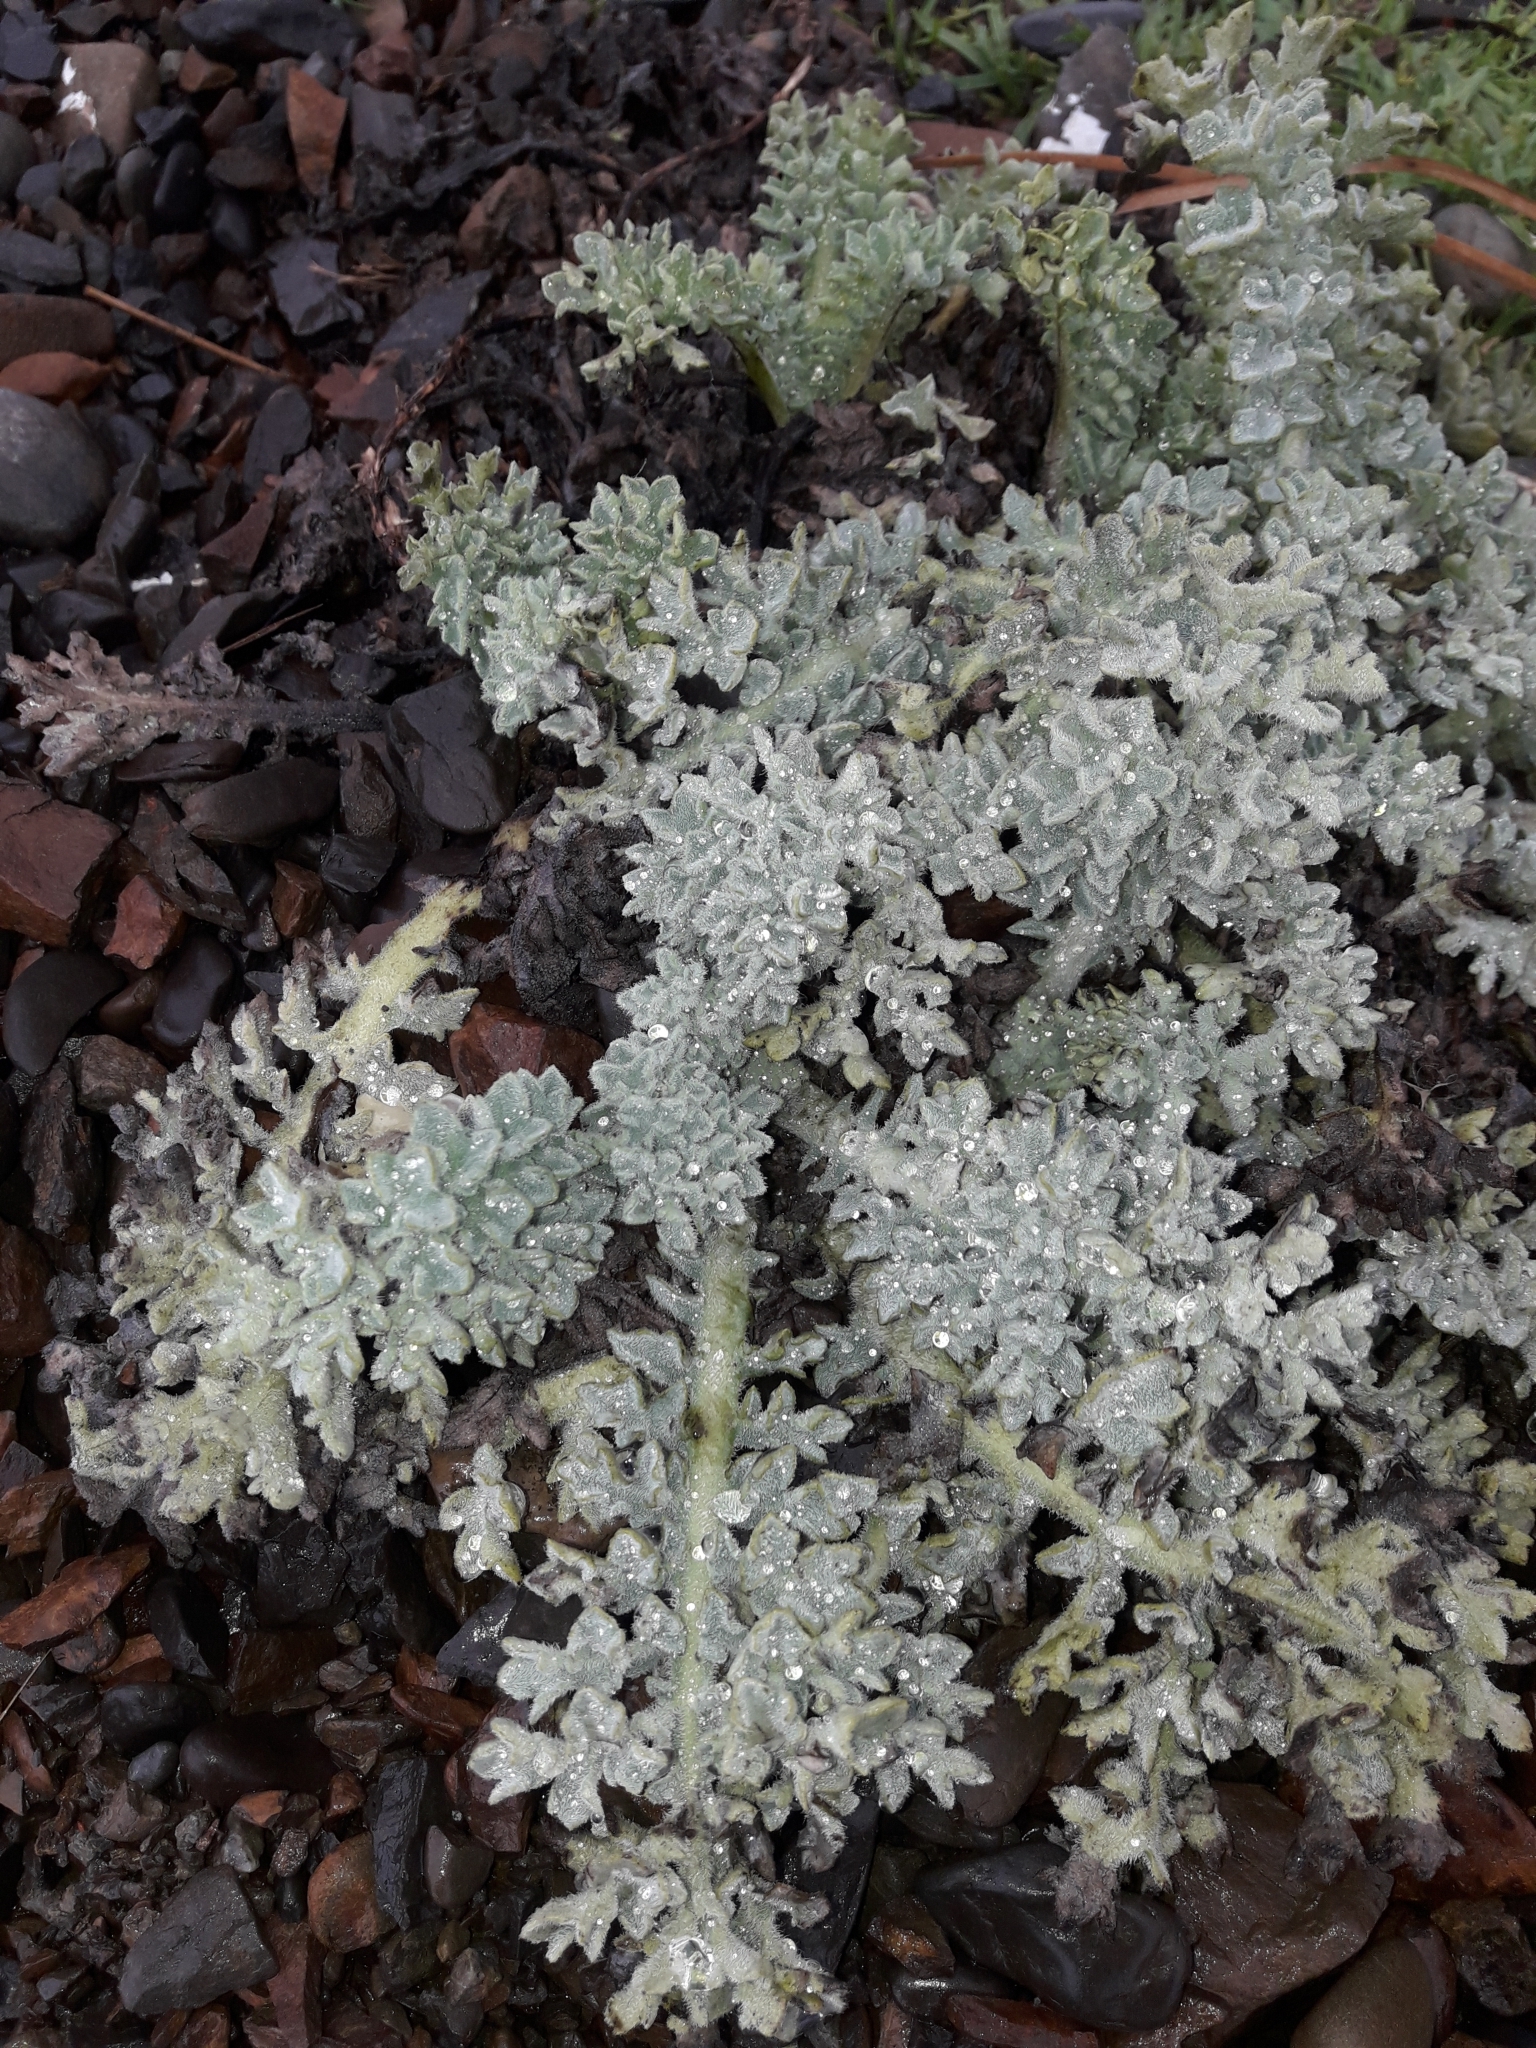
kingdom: Plantae
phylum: Tracheophyta
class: Magnoliopsida
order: Ranunculales
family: Papaveraceae
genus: Glaucium
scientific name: Glaucium flavum
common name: Yellow horned-poppy
